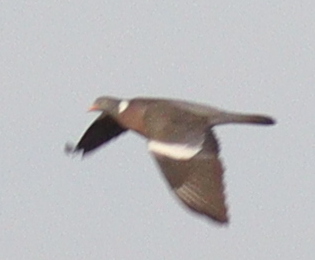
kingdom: Animalia
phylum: Chordata
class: Aves
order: Columbiformes
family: Columbidae
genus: Columba
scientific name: Columba palumbus
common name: Common wood pigeon
